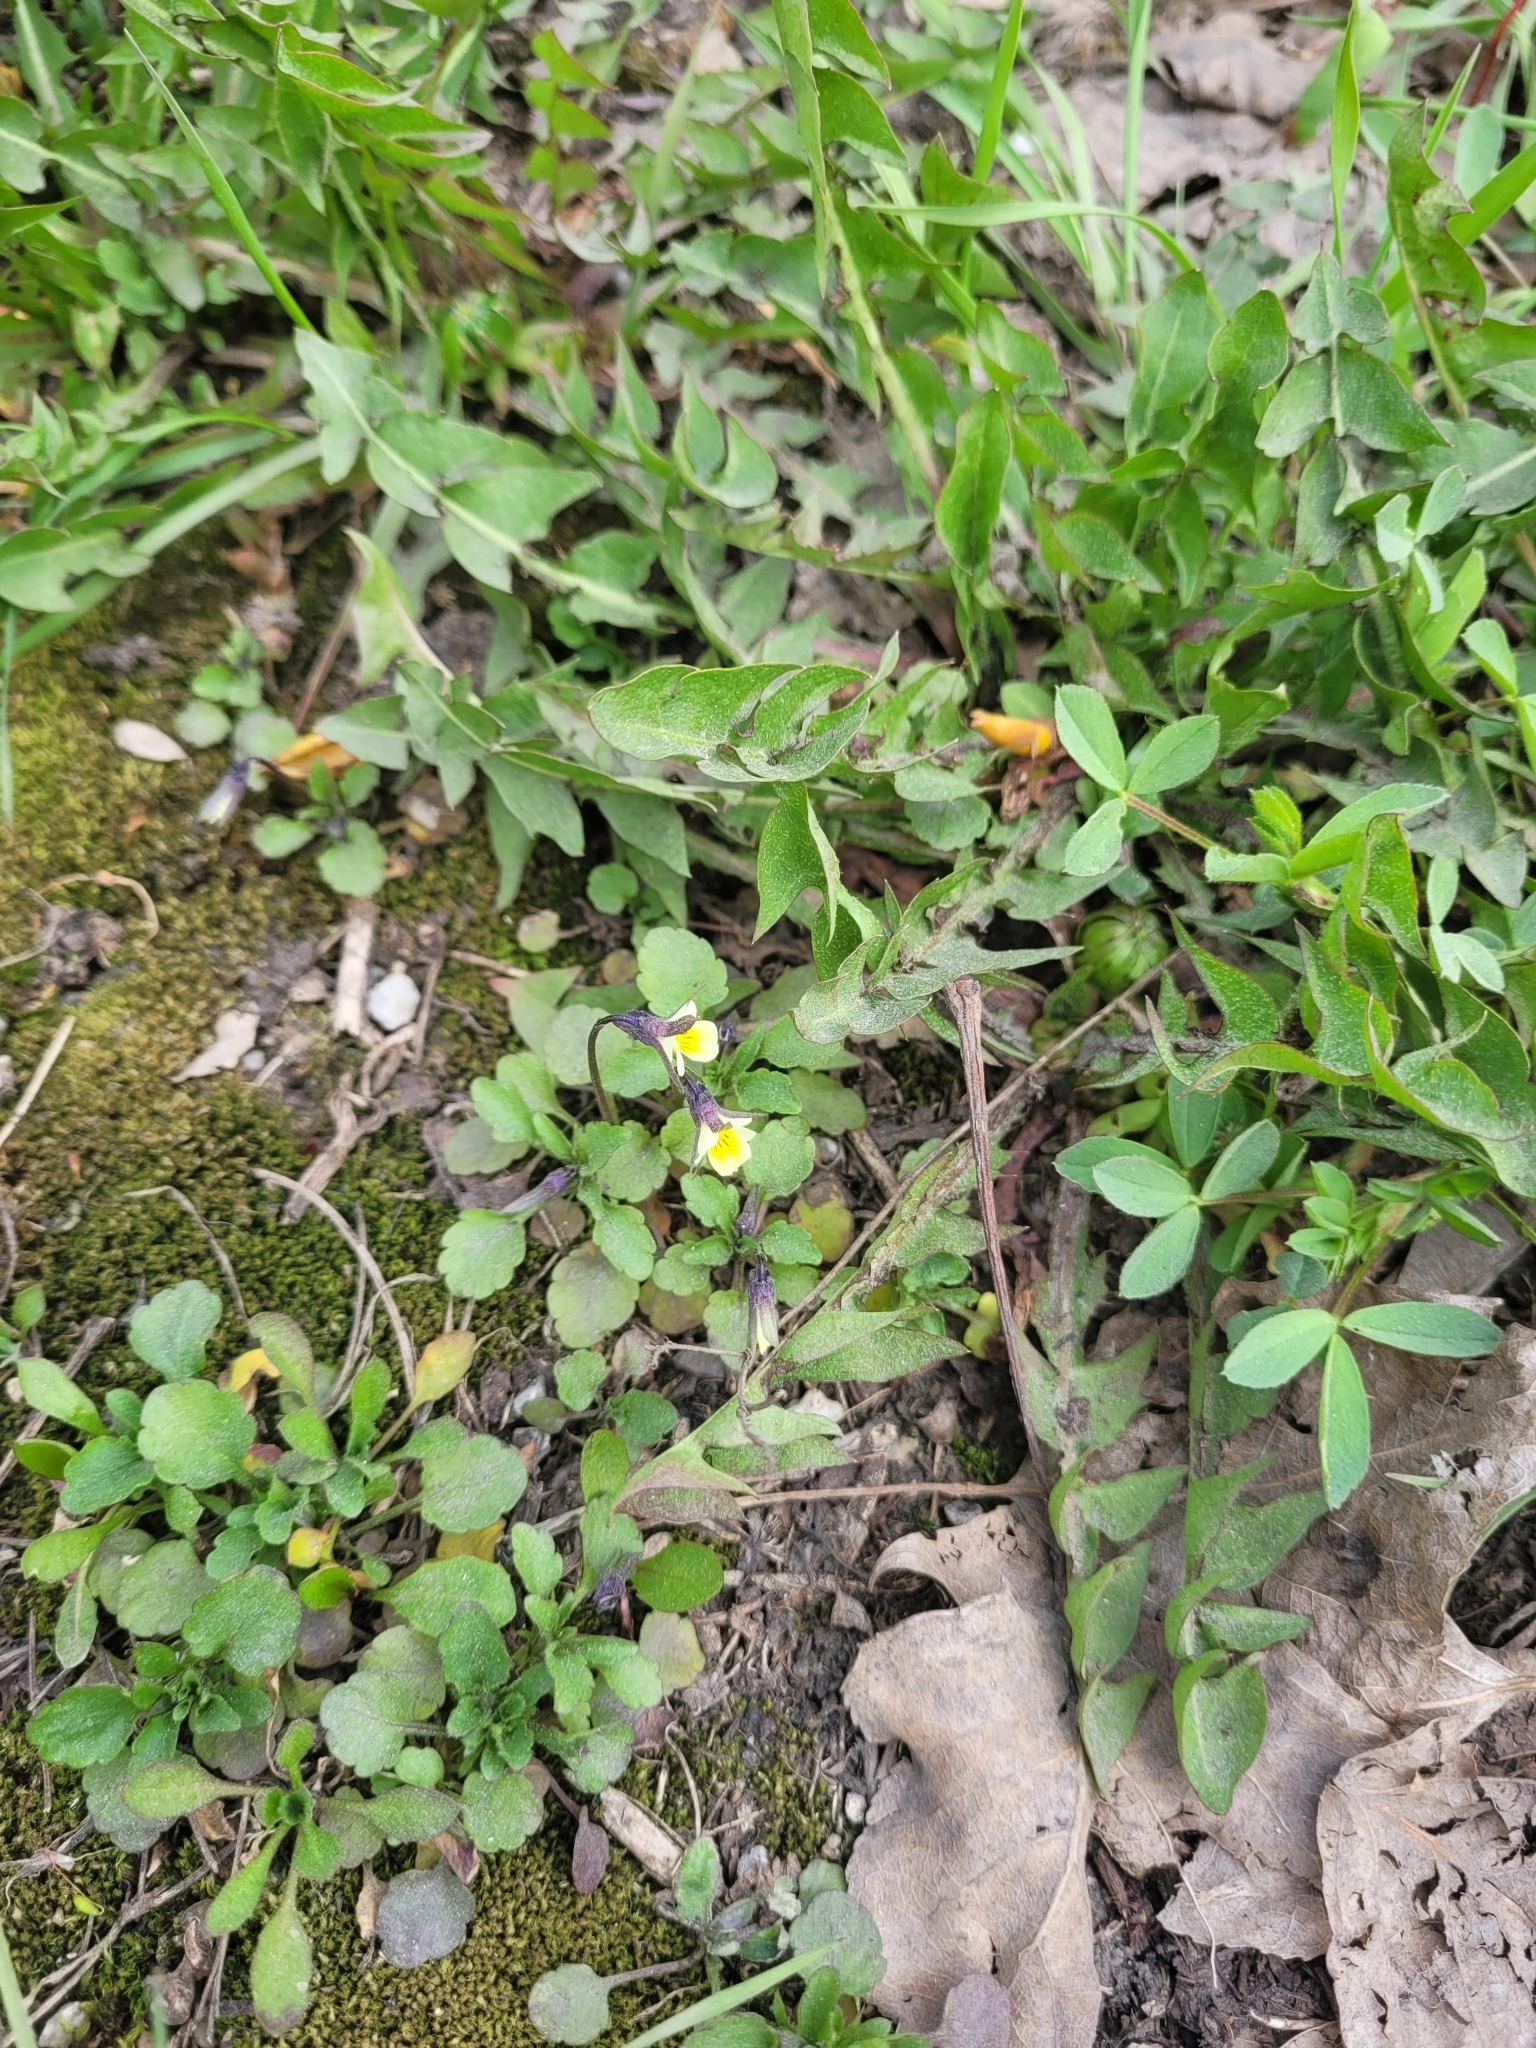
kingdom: Plantae
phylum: Tracheophyta
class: Magnoliopsida
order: Malpighiales
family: Violaceae
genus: Viola
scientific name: Viola arvensis
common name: Field pansy
